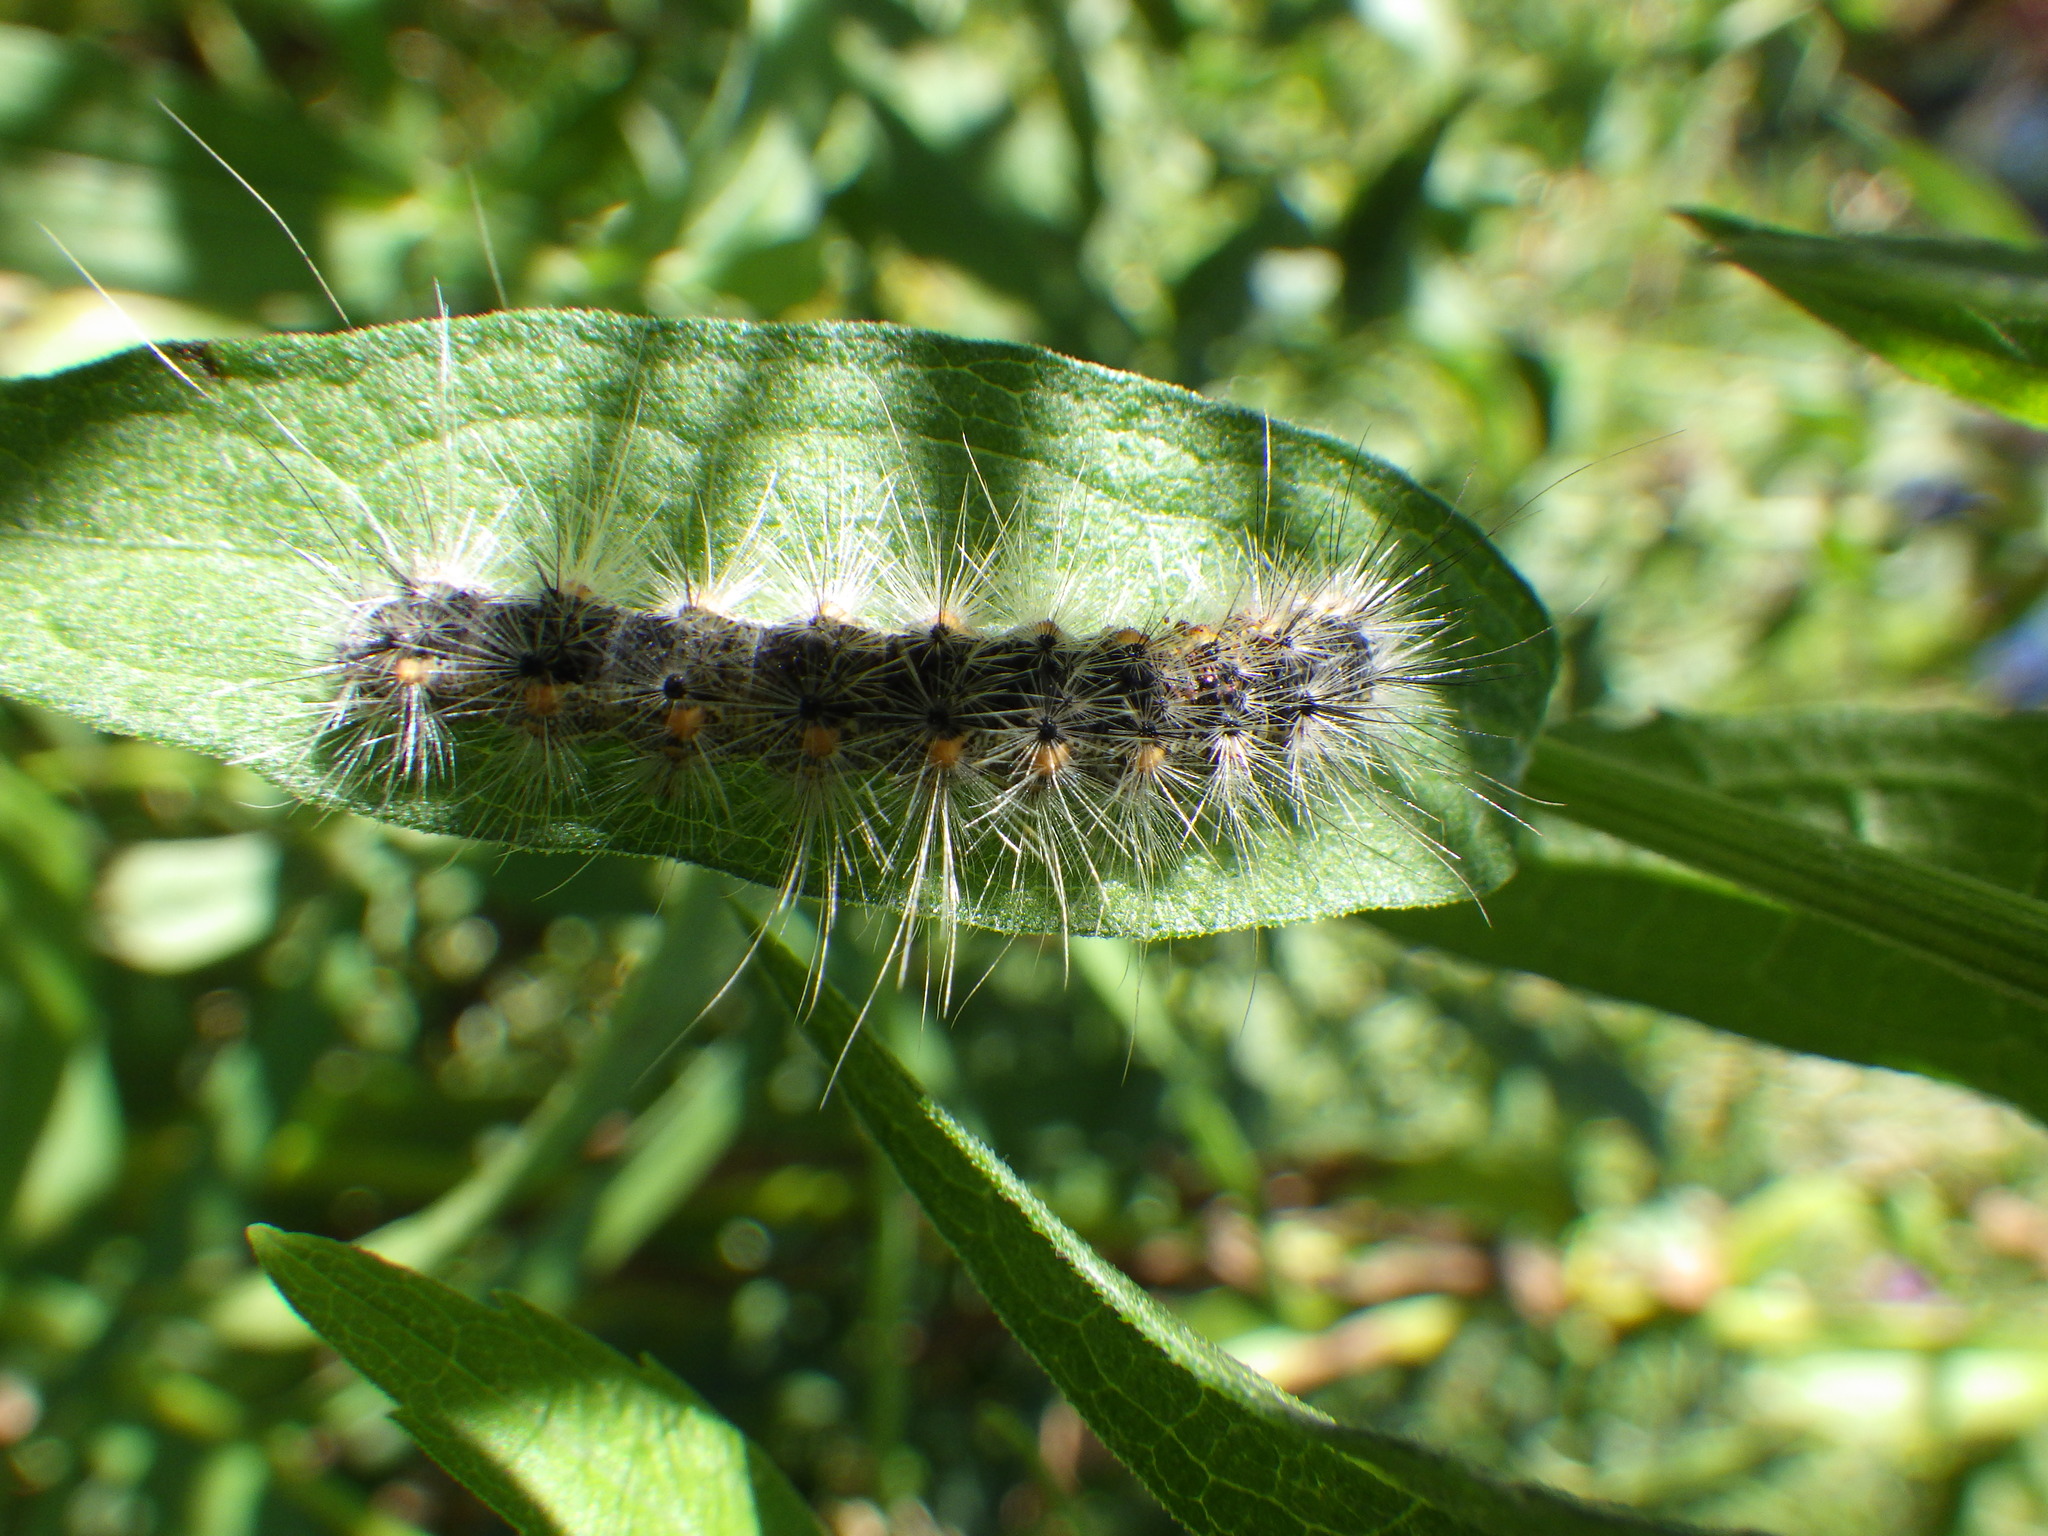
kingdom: Animalia
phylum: Arthropoda
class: Insecta
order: Lepidoptera
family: Erebidae
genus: Hyphantria
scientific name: Hyphantria cunea
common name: American white moth
